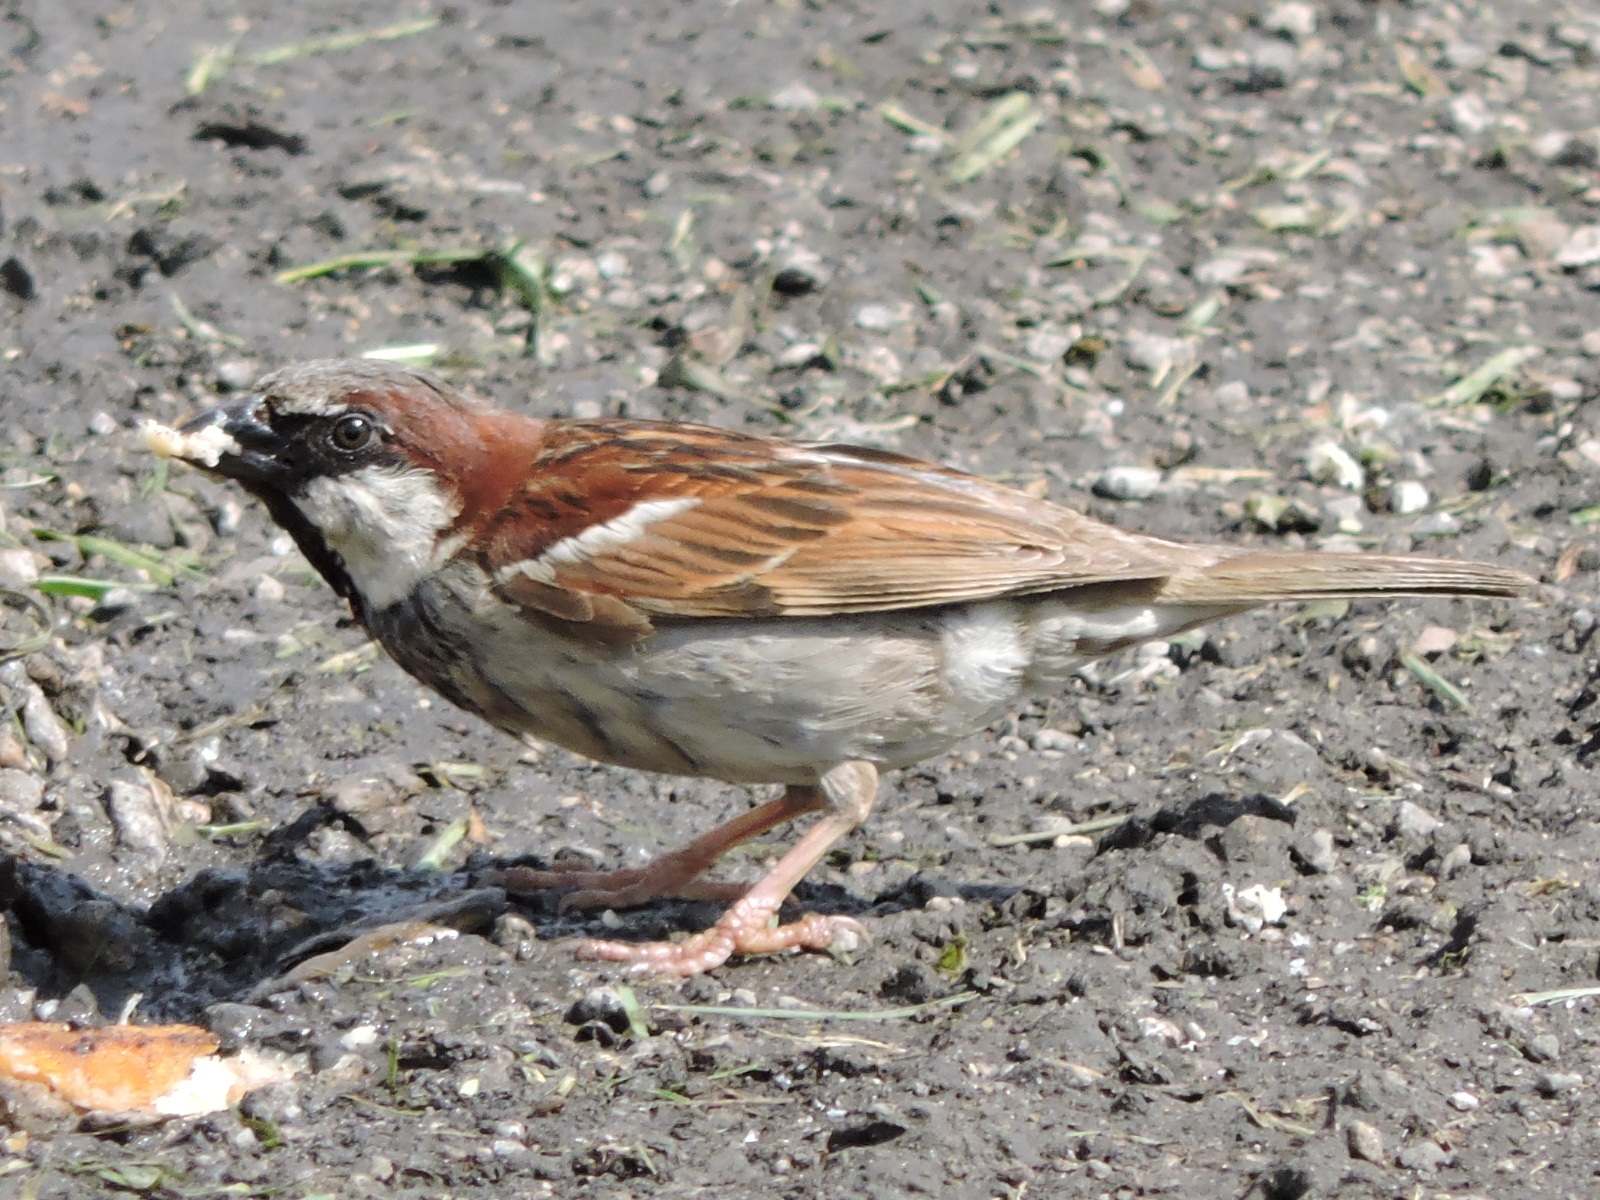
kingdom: Animalia
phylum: Chordata
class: Aves
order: Passeriformes
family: Passeridae
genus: Passer
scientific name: Passer domesticus
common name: House sparrow
